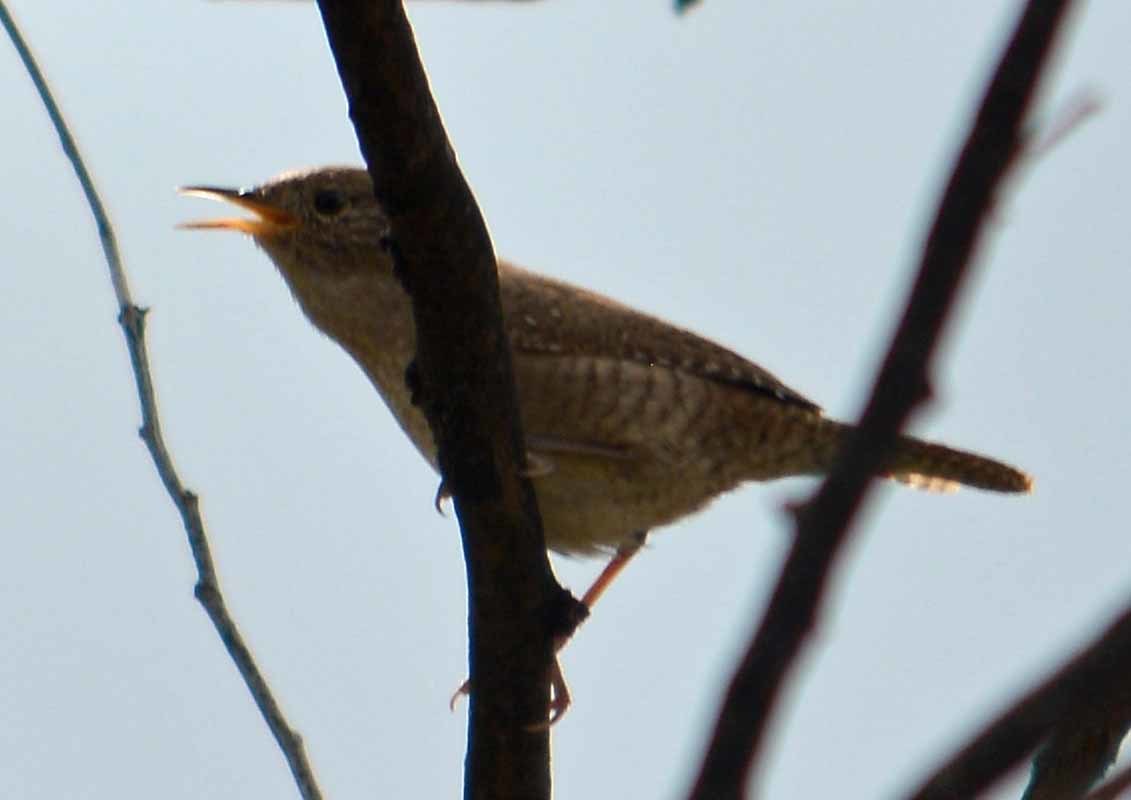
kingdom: Animalia
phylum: Chordata
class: Aves
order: Passeriformes
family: Troglodytidae
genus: Troglodytes
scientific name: Troglodytes aedon
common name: House wren
